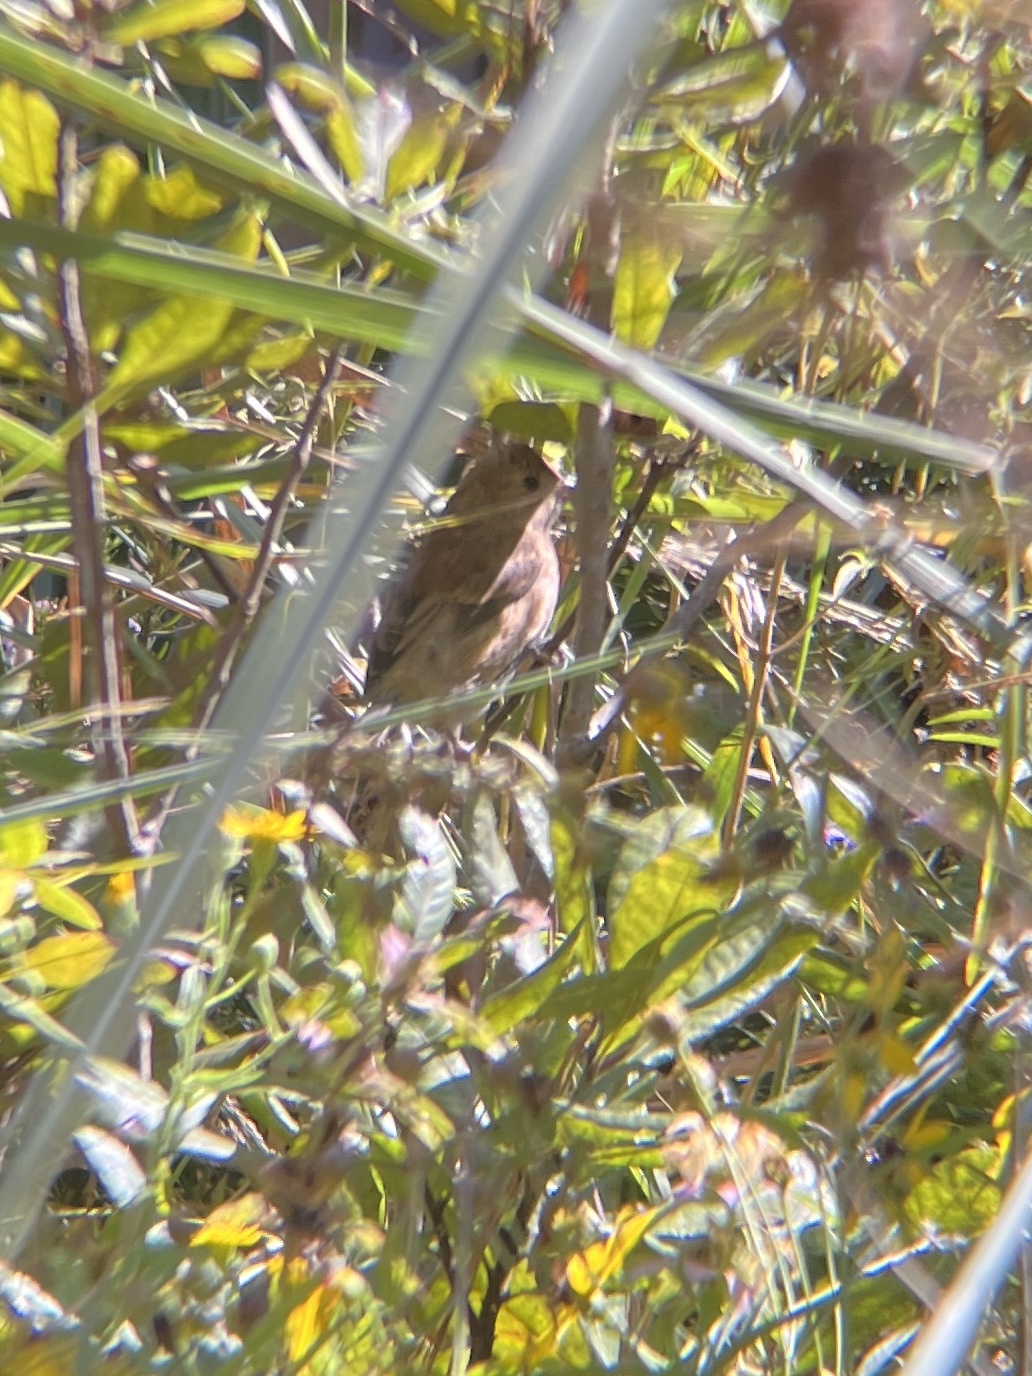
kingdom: Animalia
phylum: Chordata
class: Aves
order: Passeriformes
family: Cardinalidae
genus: Passerina
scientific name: Passerina cyanea
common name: Indigo bunting
